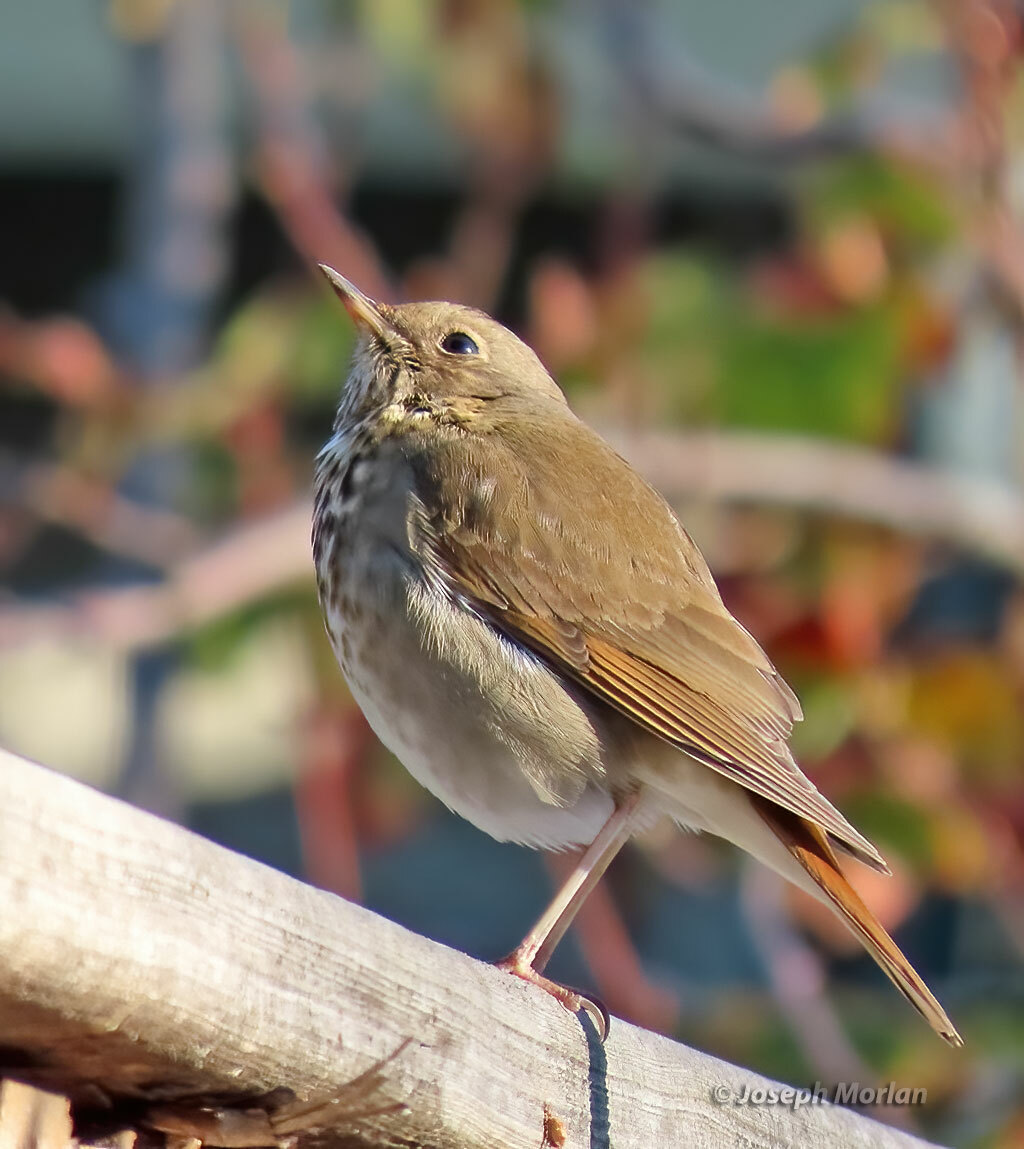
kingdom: Animalia
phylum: Chordata
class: Aves
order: Passeriformes
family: Turdidae
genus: Catharus
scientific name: Catharus guttatus
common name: Hermit thrush
